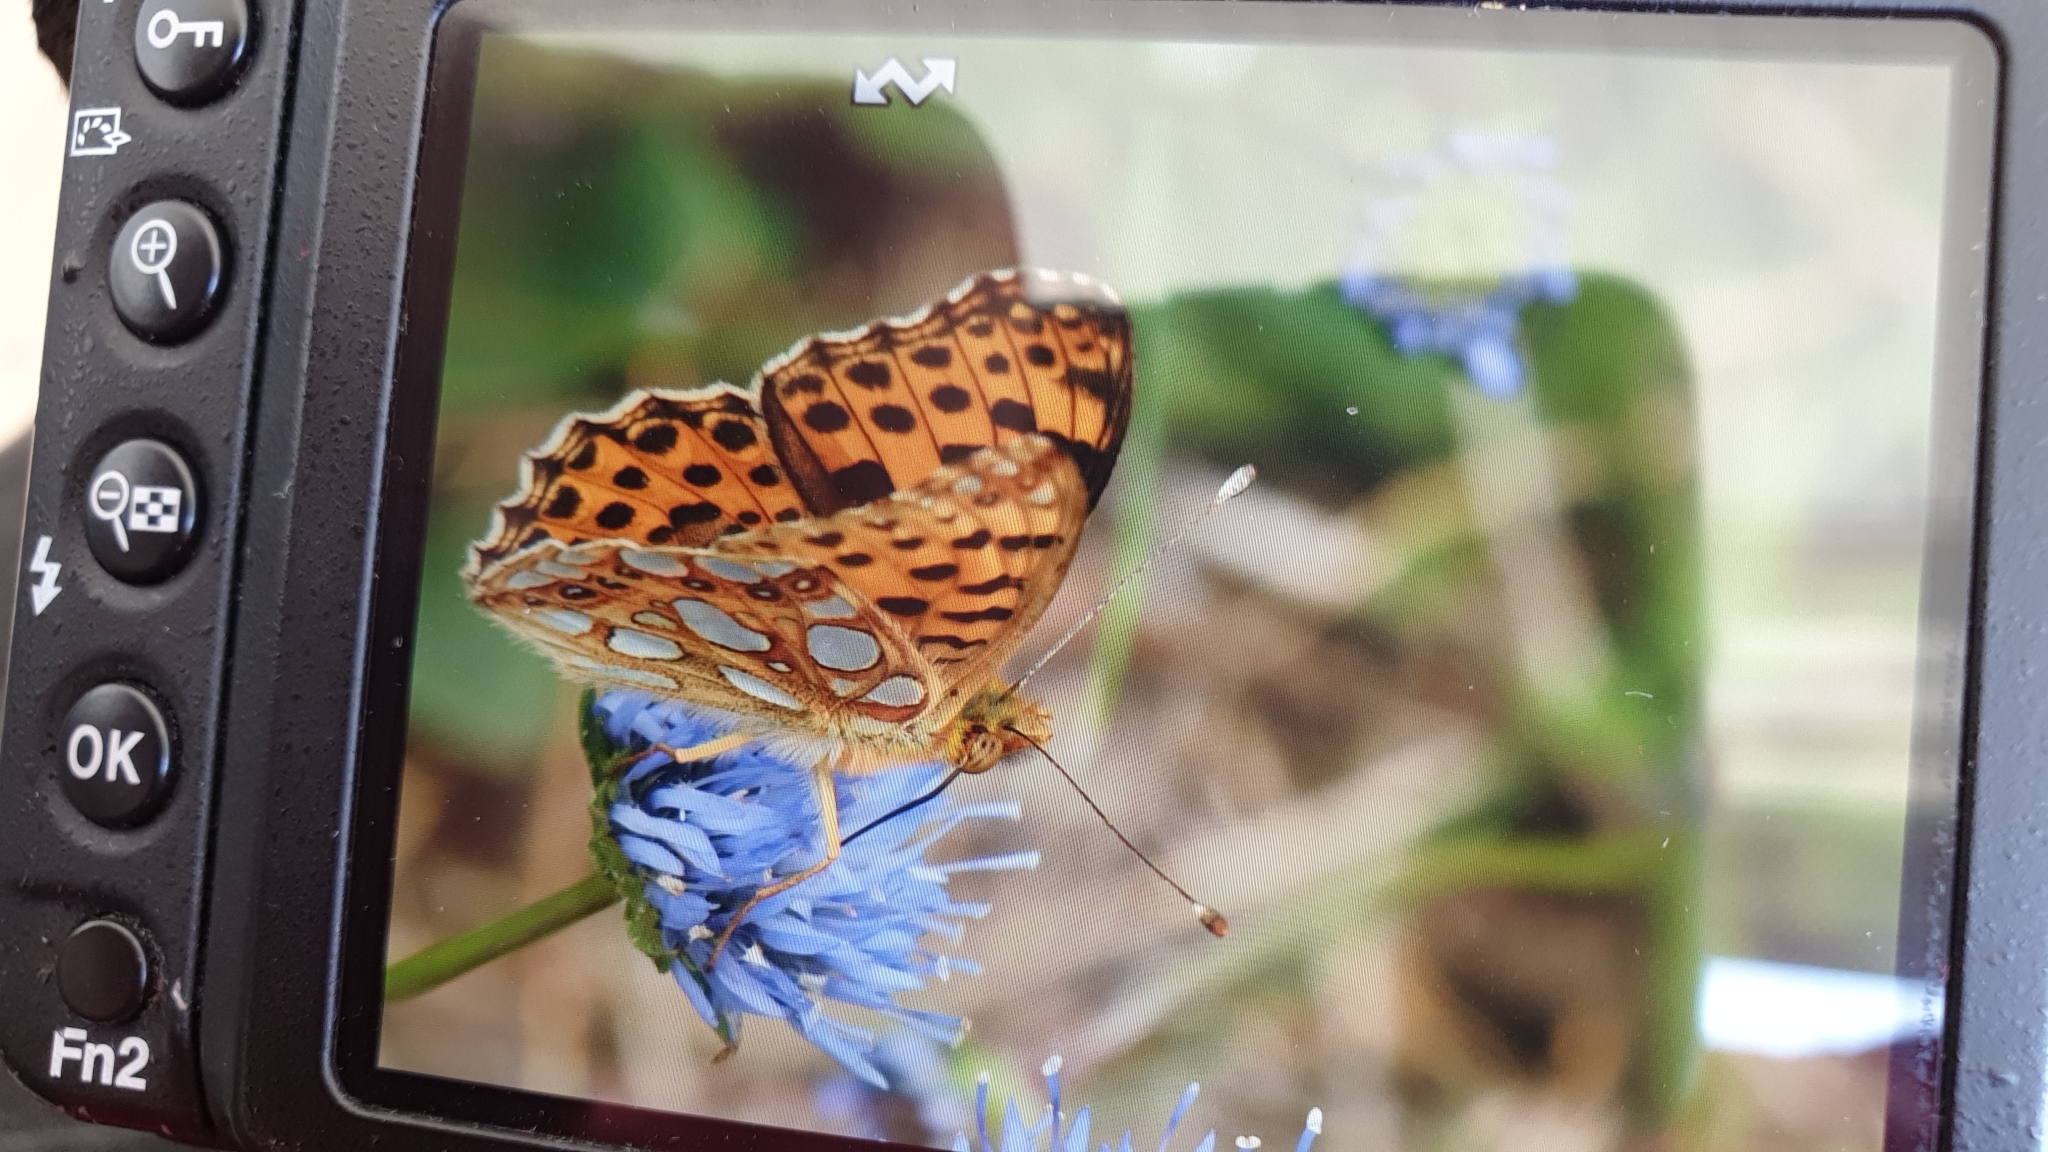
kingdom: Animalia
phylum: Arthropoda
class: Insecta
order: Lepidoptera
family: Nymphalidae
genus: Issoria
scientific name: Issoria lathonia
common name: Queen of spain fritillary
